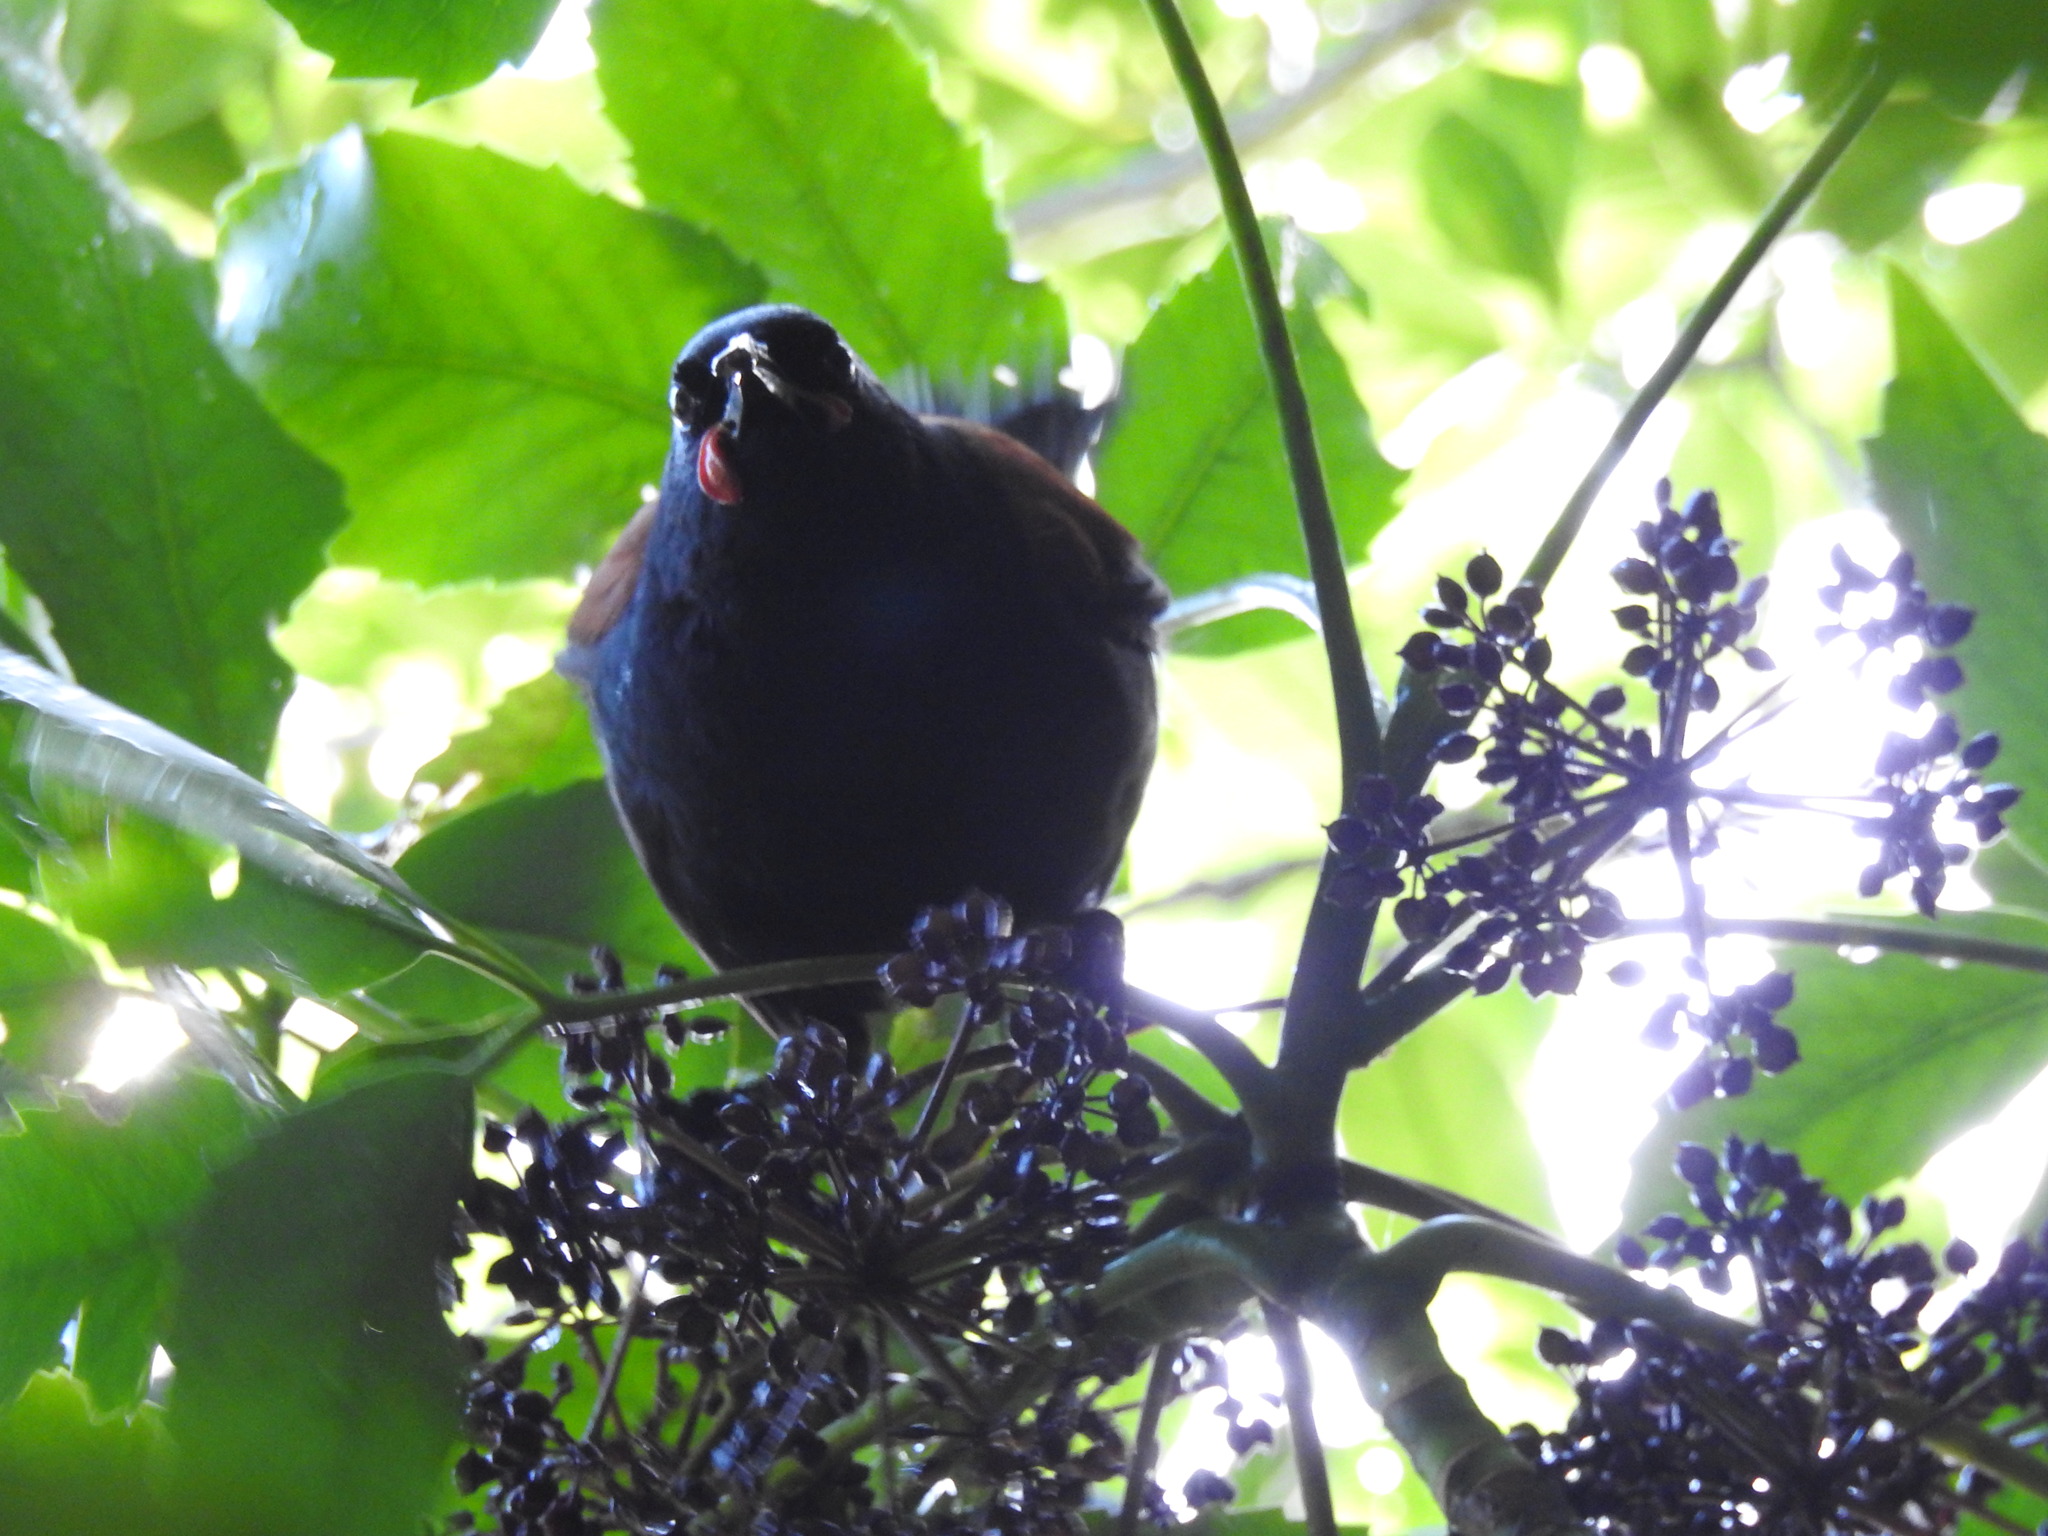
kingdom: Animalia
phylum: Chordata
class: Aves
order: Passeriformes
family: Callaeatidae
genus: Philesturnus
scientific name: Philesturnus carunculatus
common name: South island saddleback
